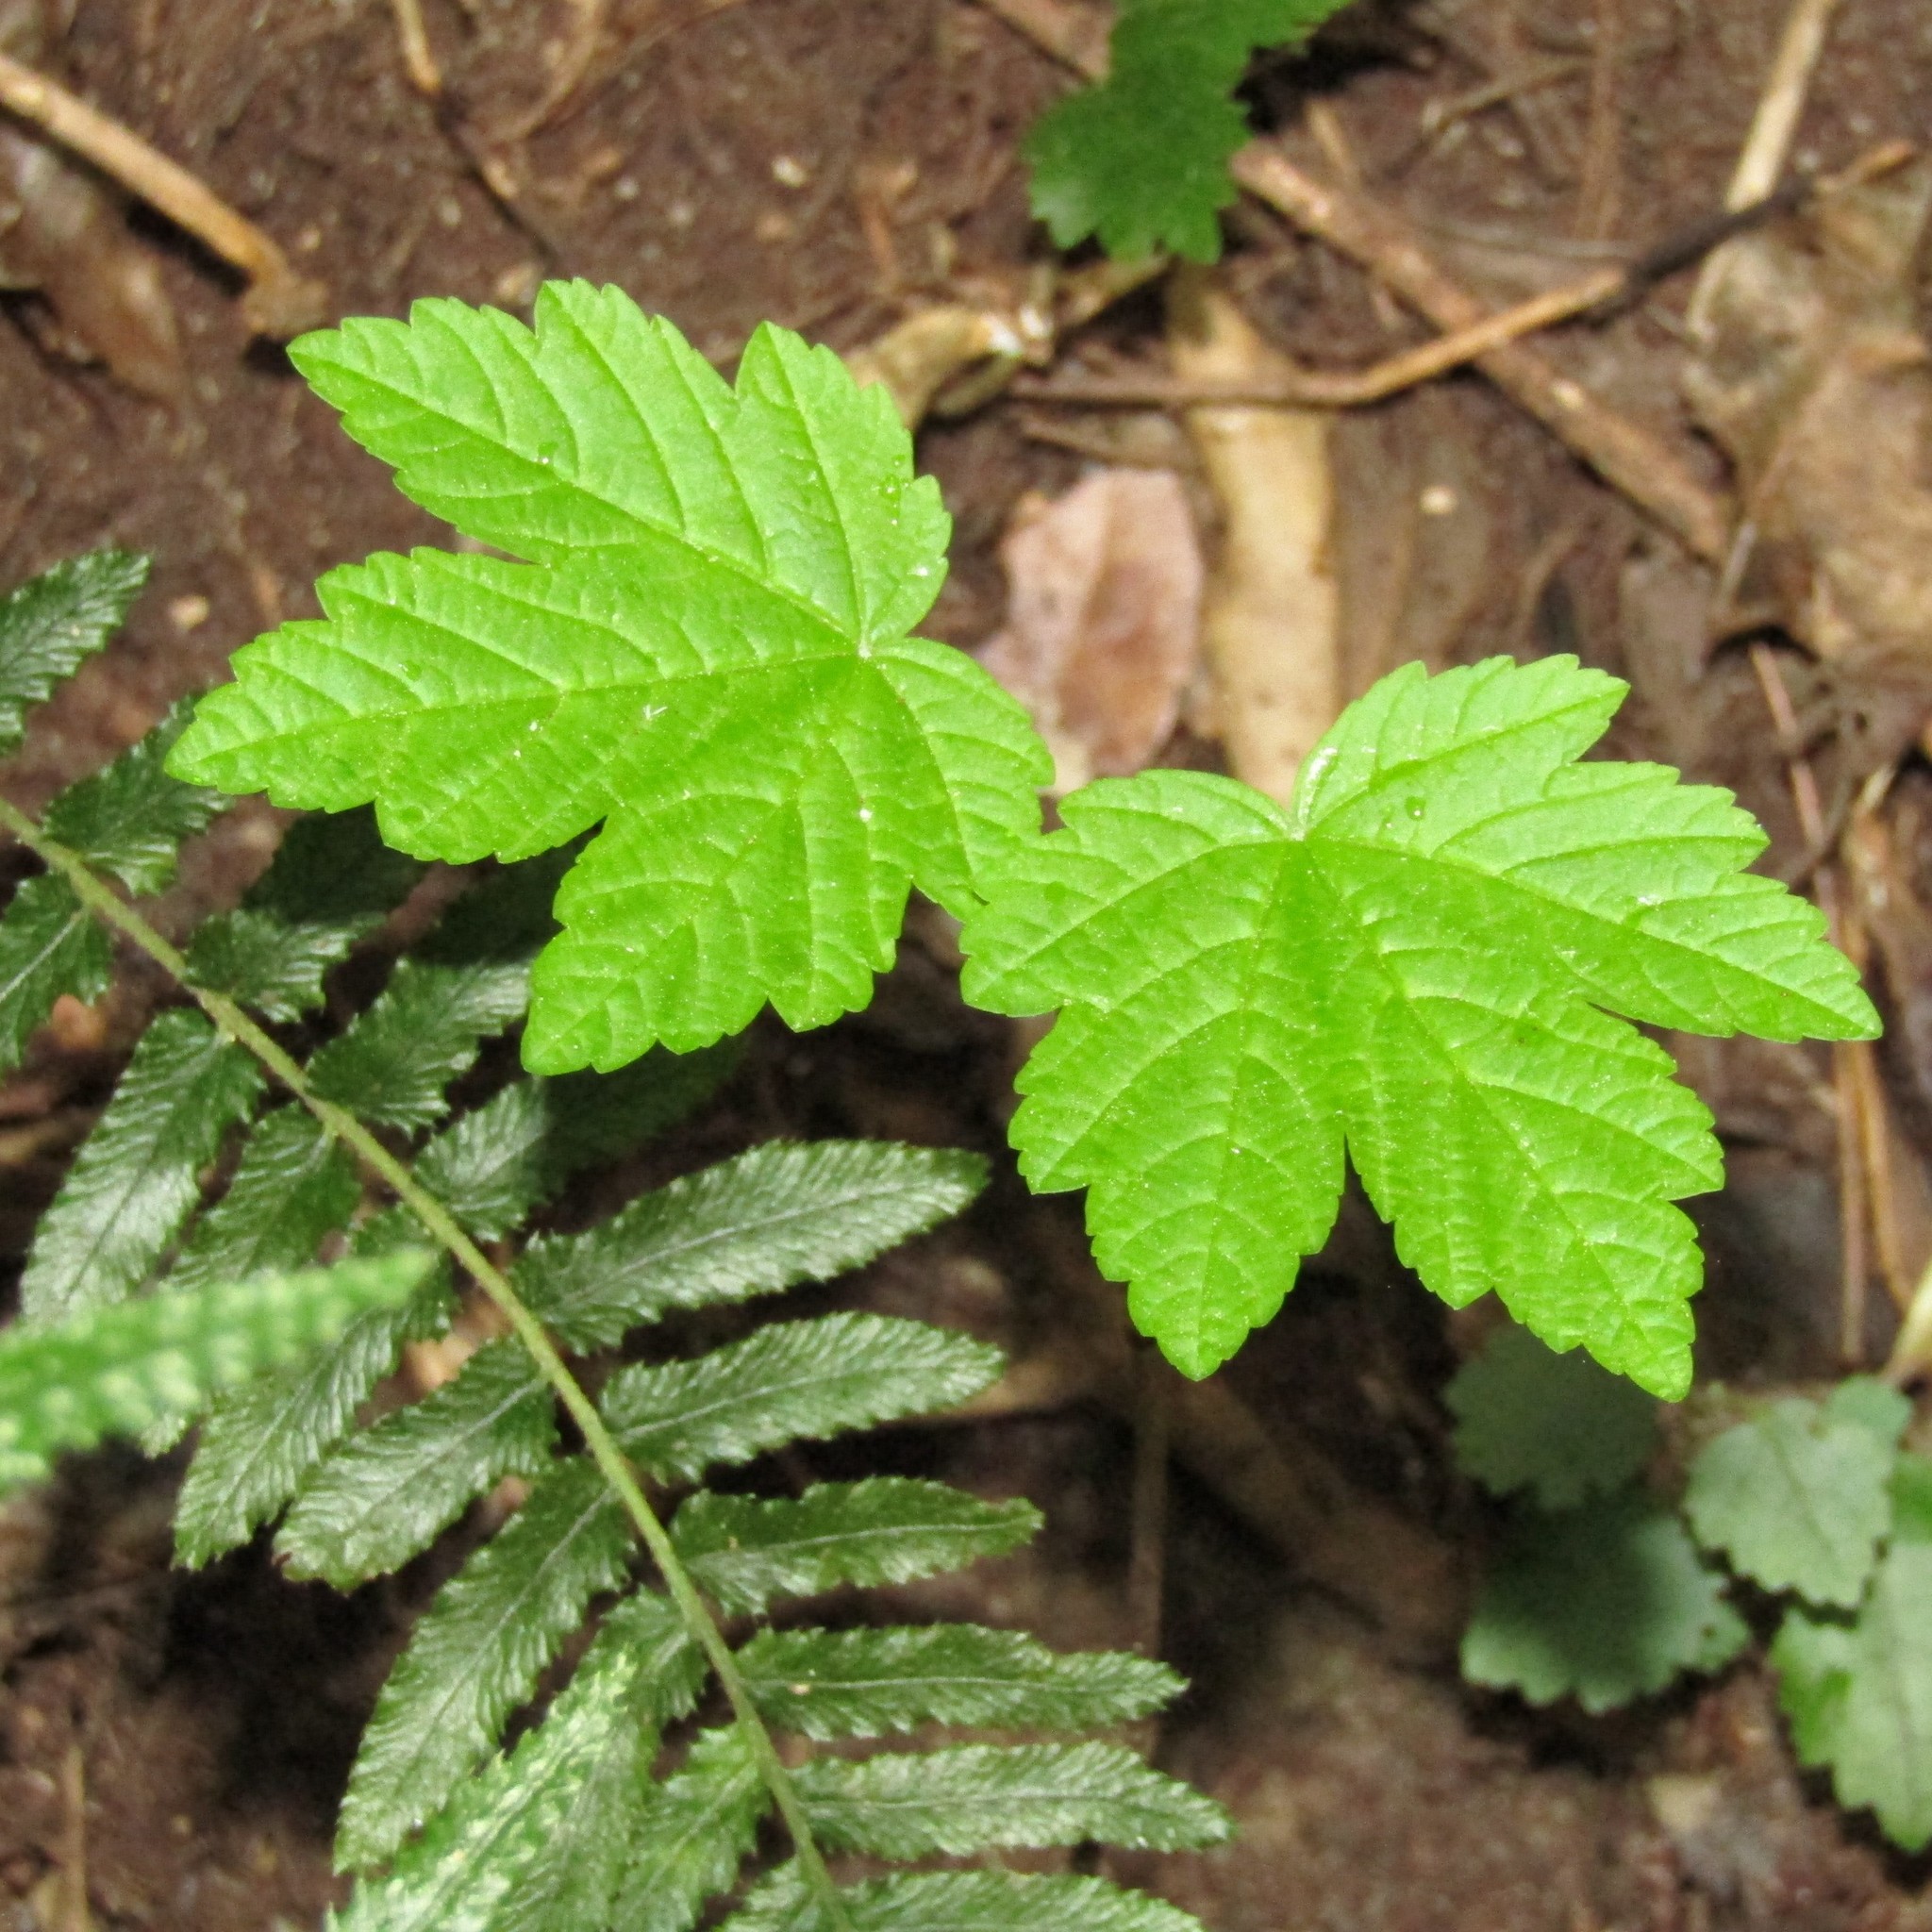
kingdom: Plantae
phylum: Tracheophyta
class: Magnoliopsida
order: Sapindales
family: Sapindaceae
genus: Acer
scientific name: Acer pseudoplatanus
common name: Sycamore
